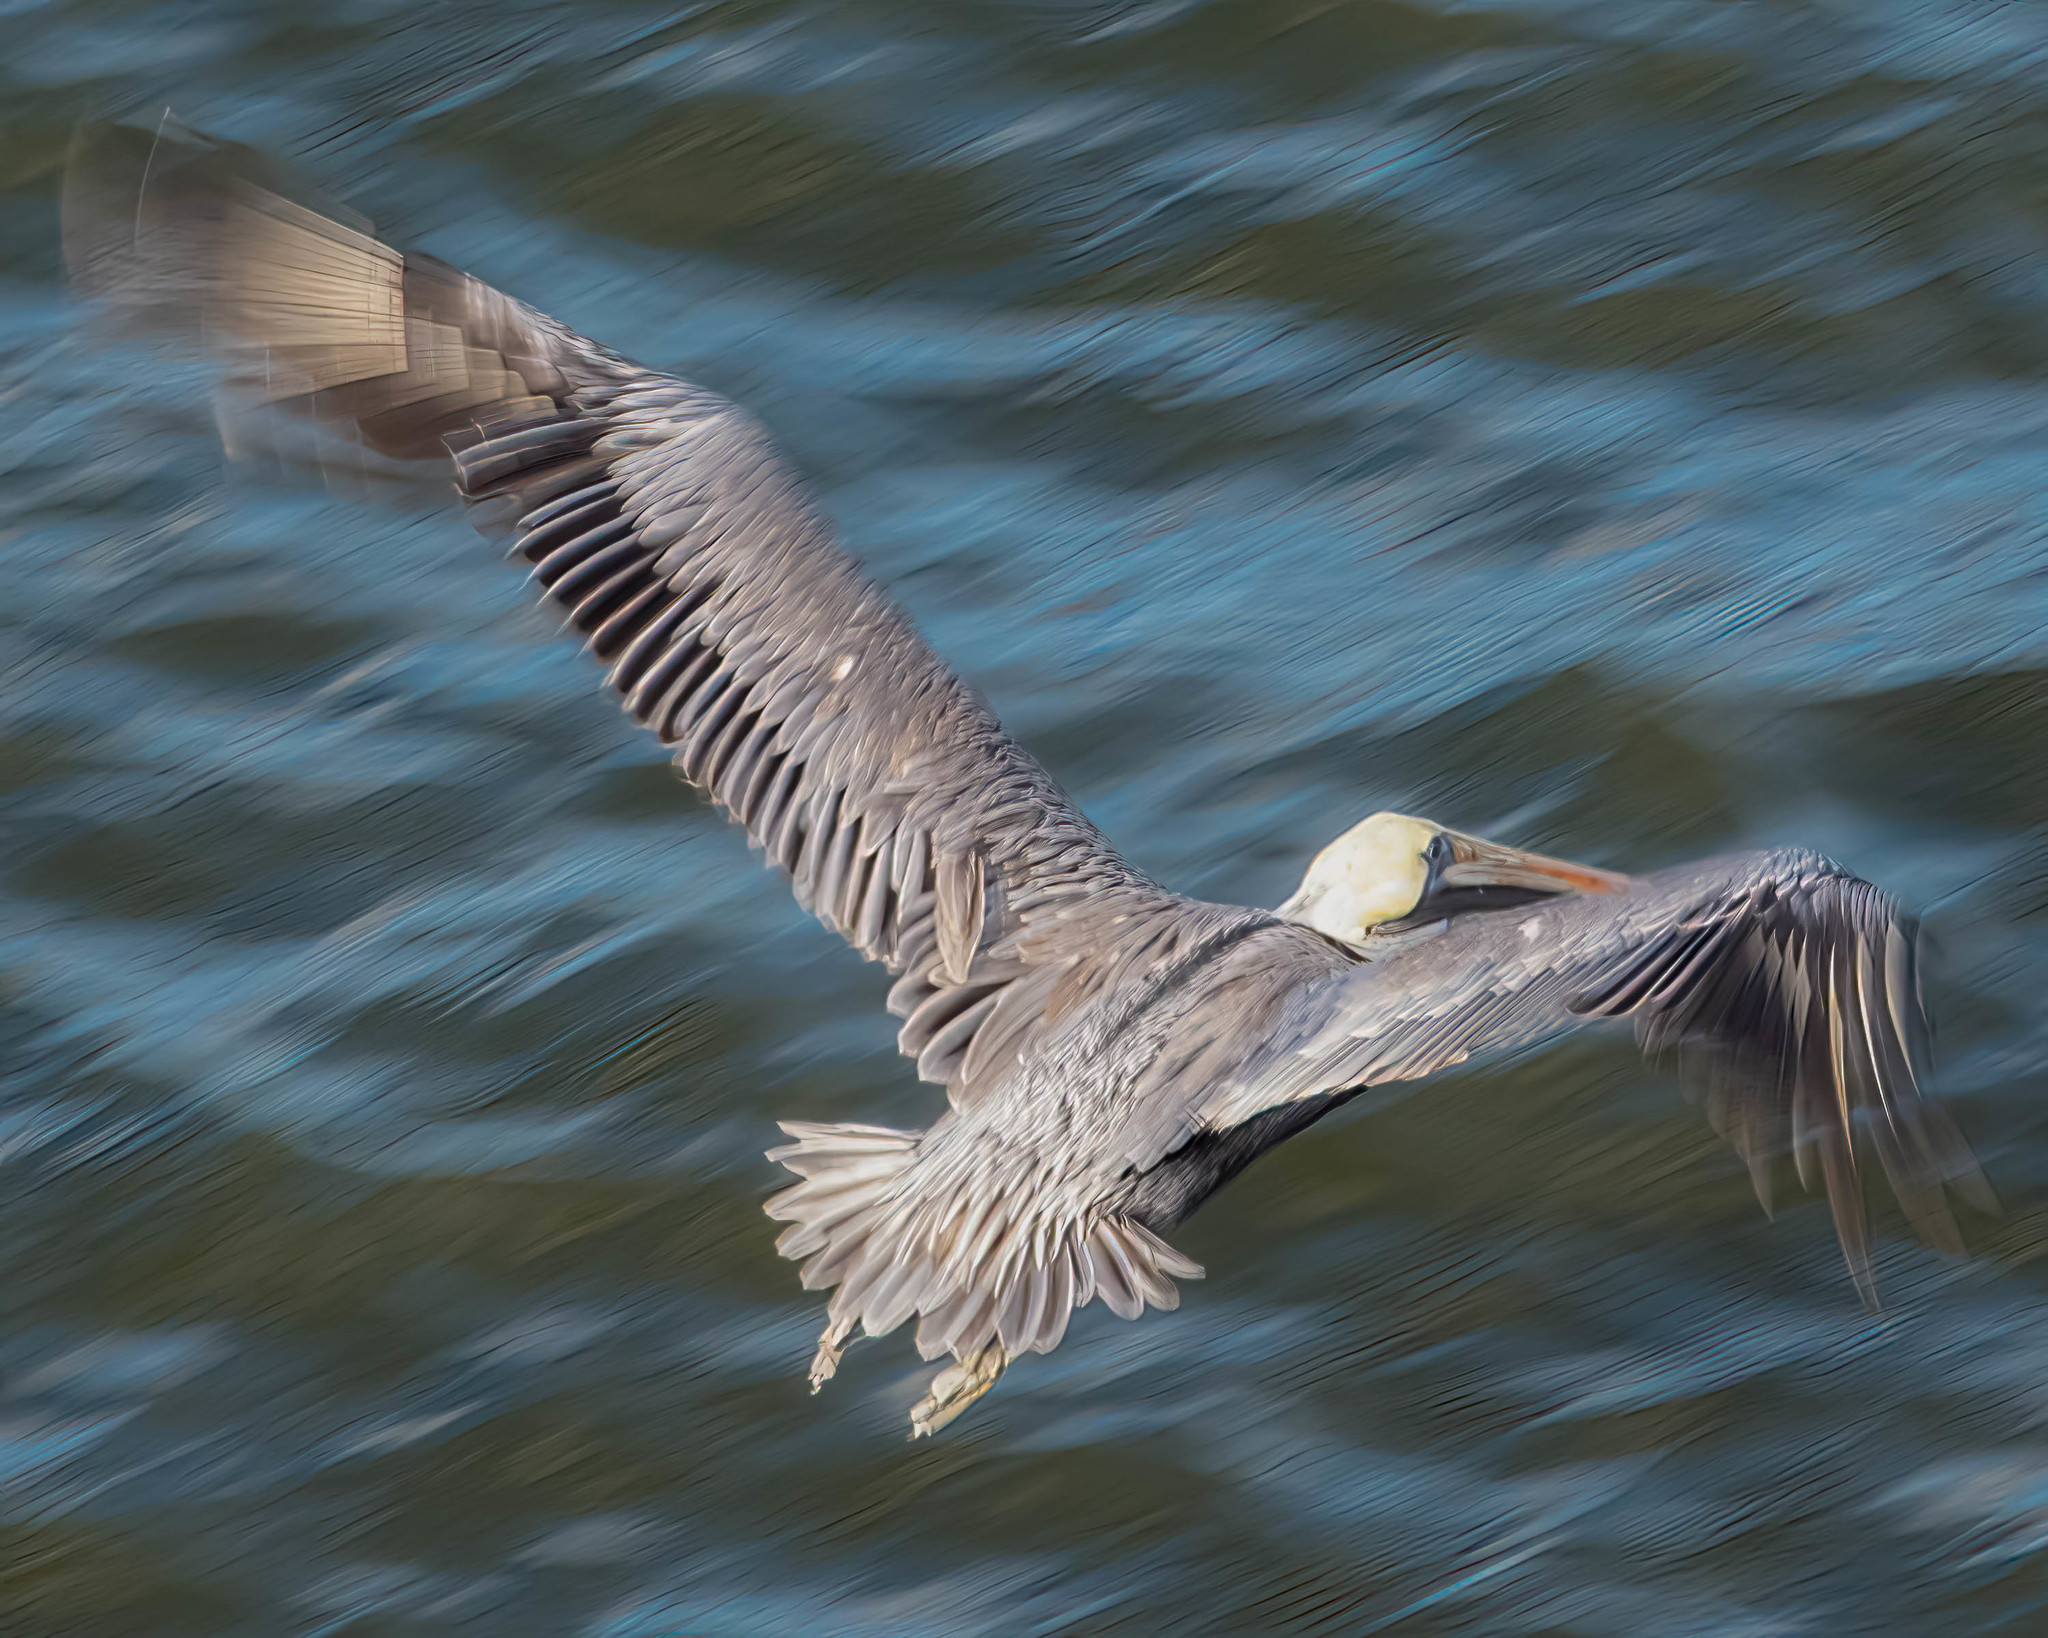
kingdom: Animalia
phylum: Chordata
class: Aves
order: Pelecaniformes
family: Pelecanidae
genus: Pelecanus
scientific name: Pelecanus occidentalis
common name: Brown pelican
